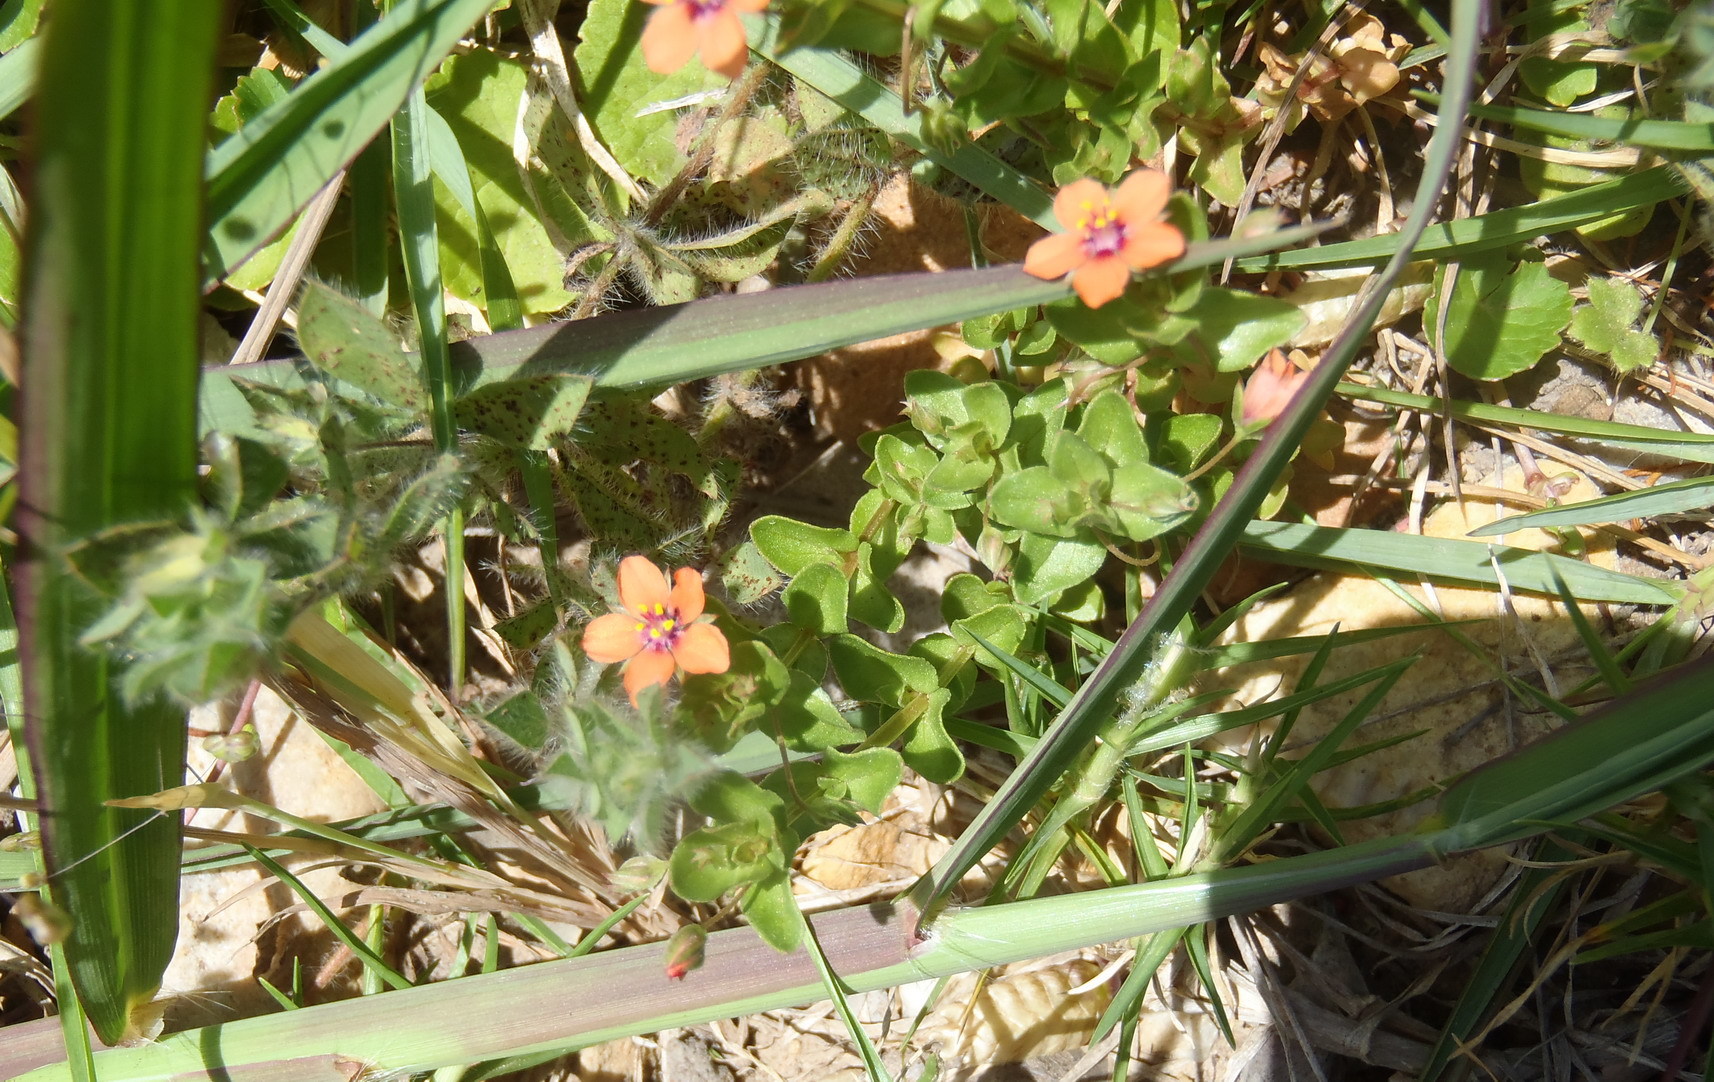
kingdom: Plantae
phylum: Tracheophyta
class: Magnoliopsida
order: Ericales
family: Primulaceae
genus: Lysimachia
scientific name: Lysimachia arvensis
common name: Scarlet pimpernel
